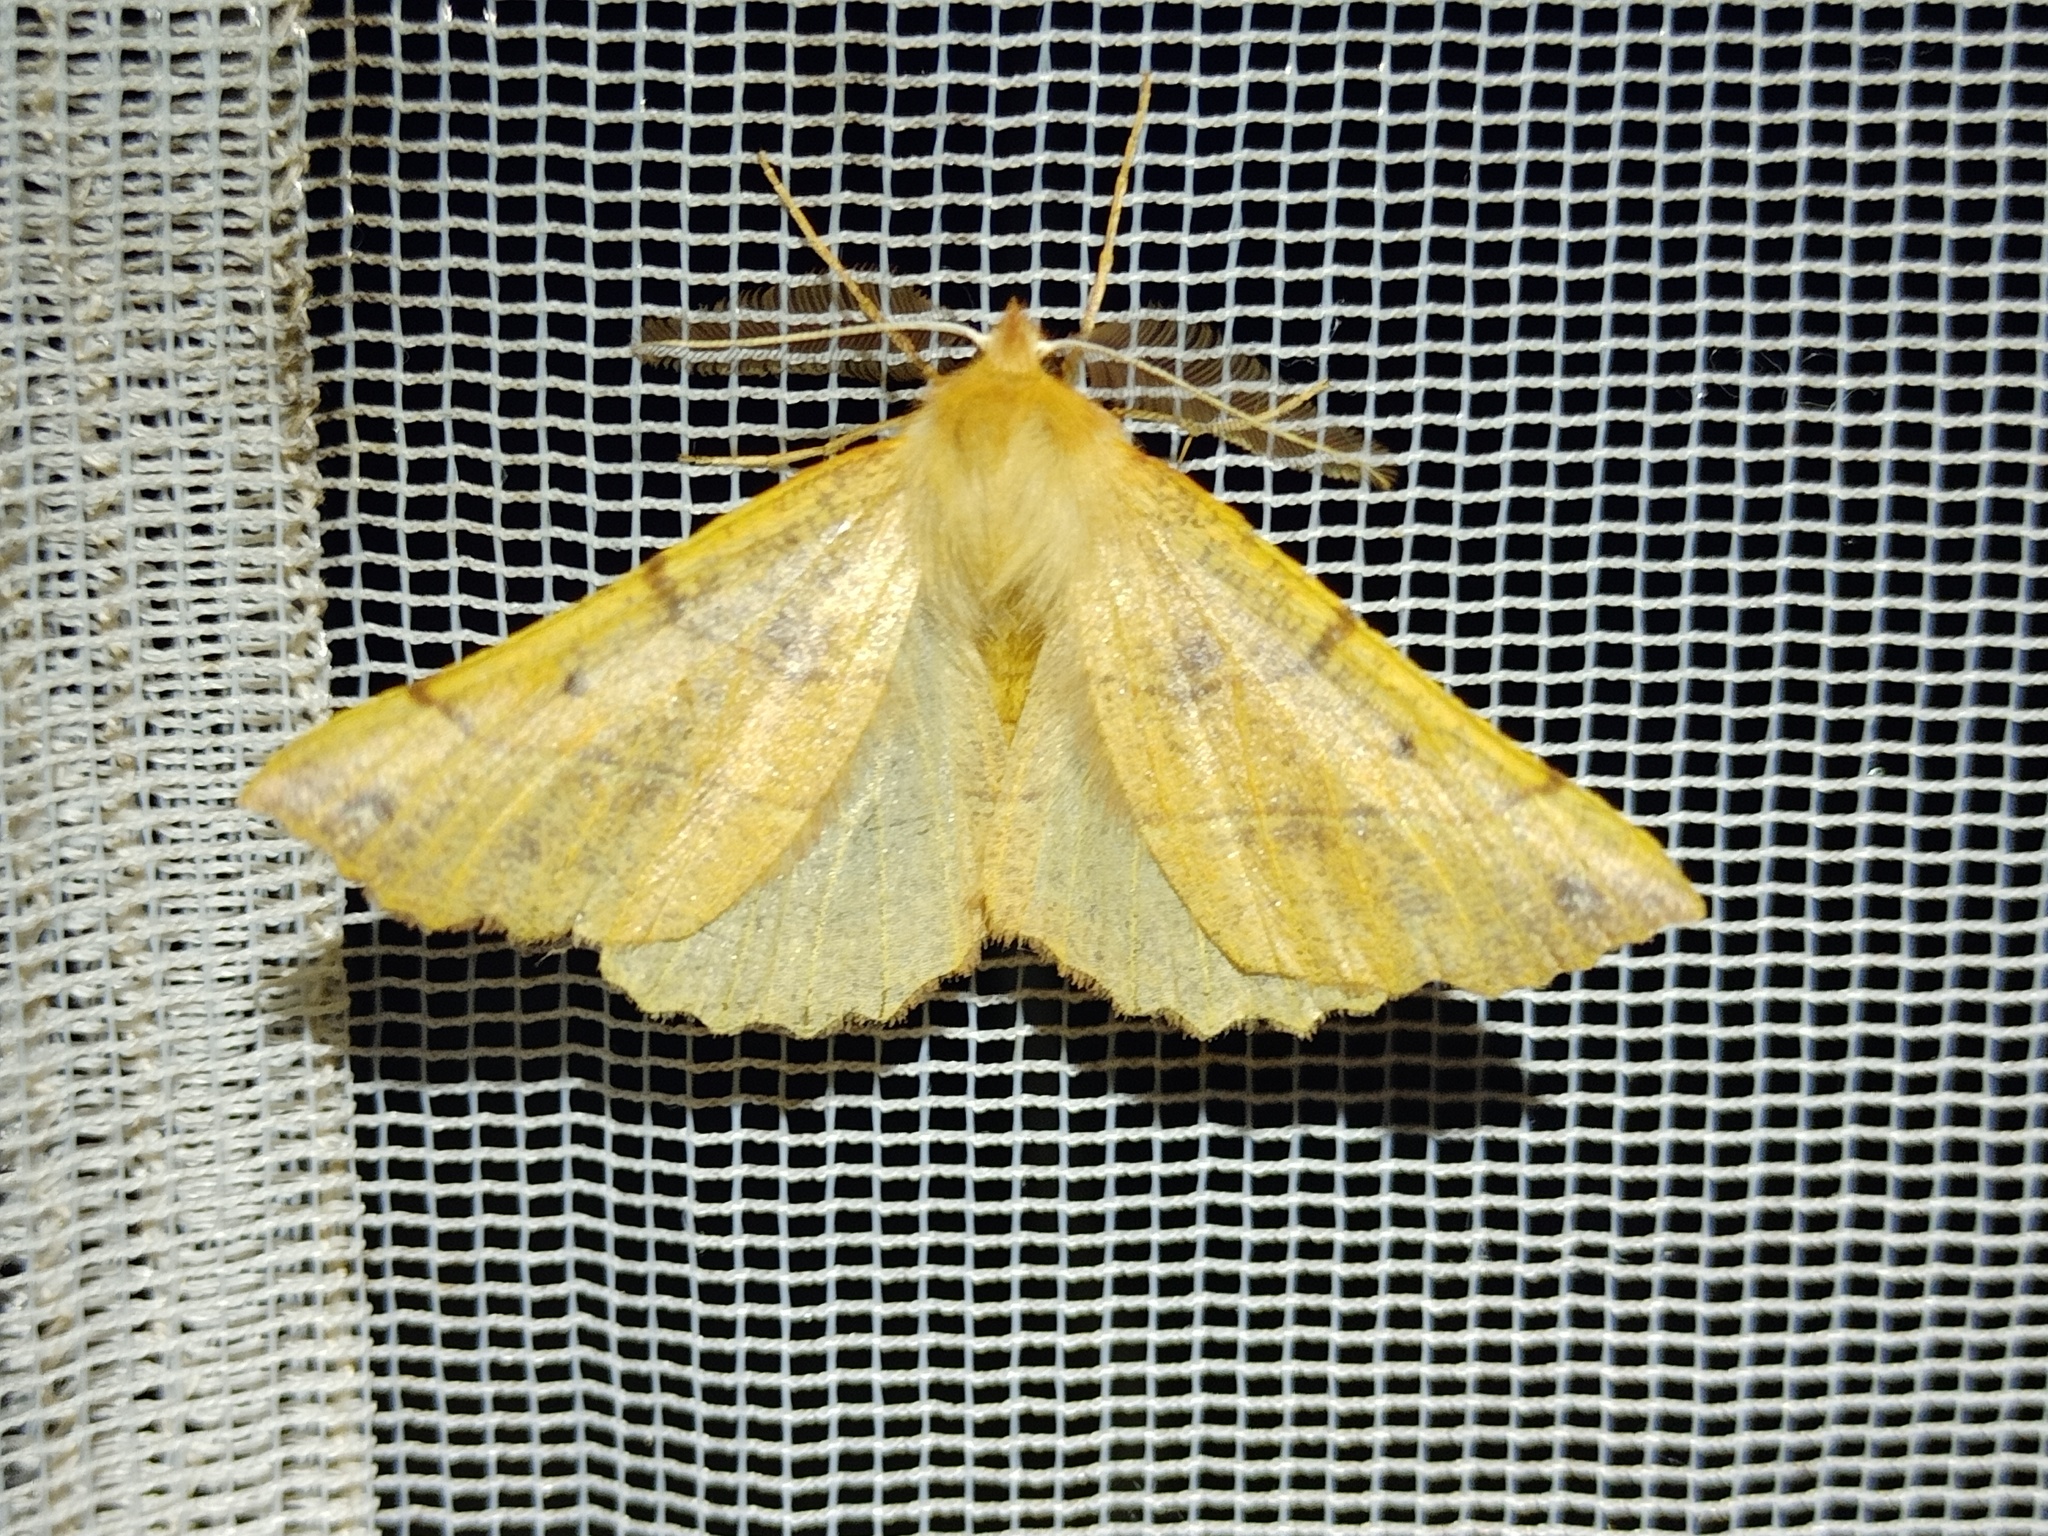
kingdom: Animalia
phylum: Arthropoda
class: Insecta
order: Lepidoptera
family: Geometridae
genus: Colotois
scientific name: Colotois pennaria
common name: Feathered thorn
